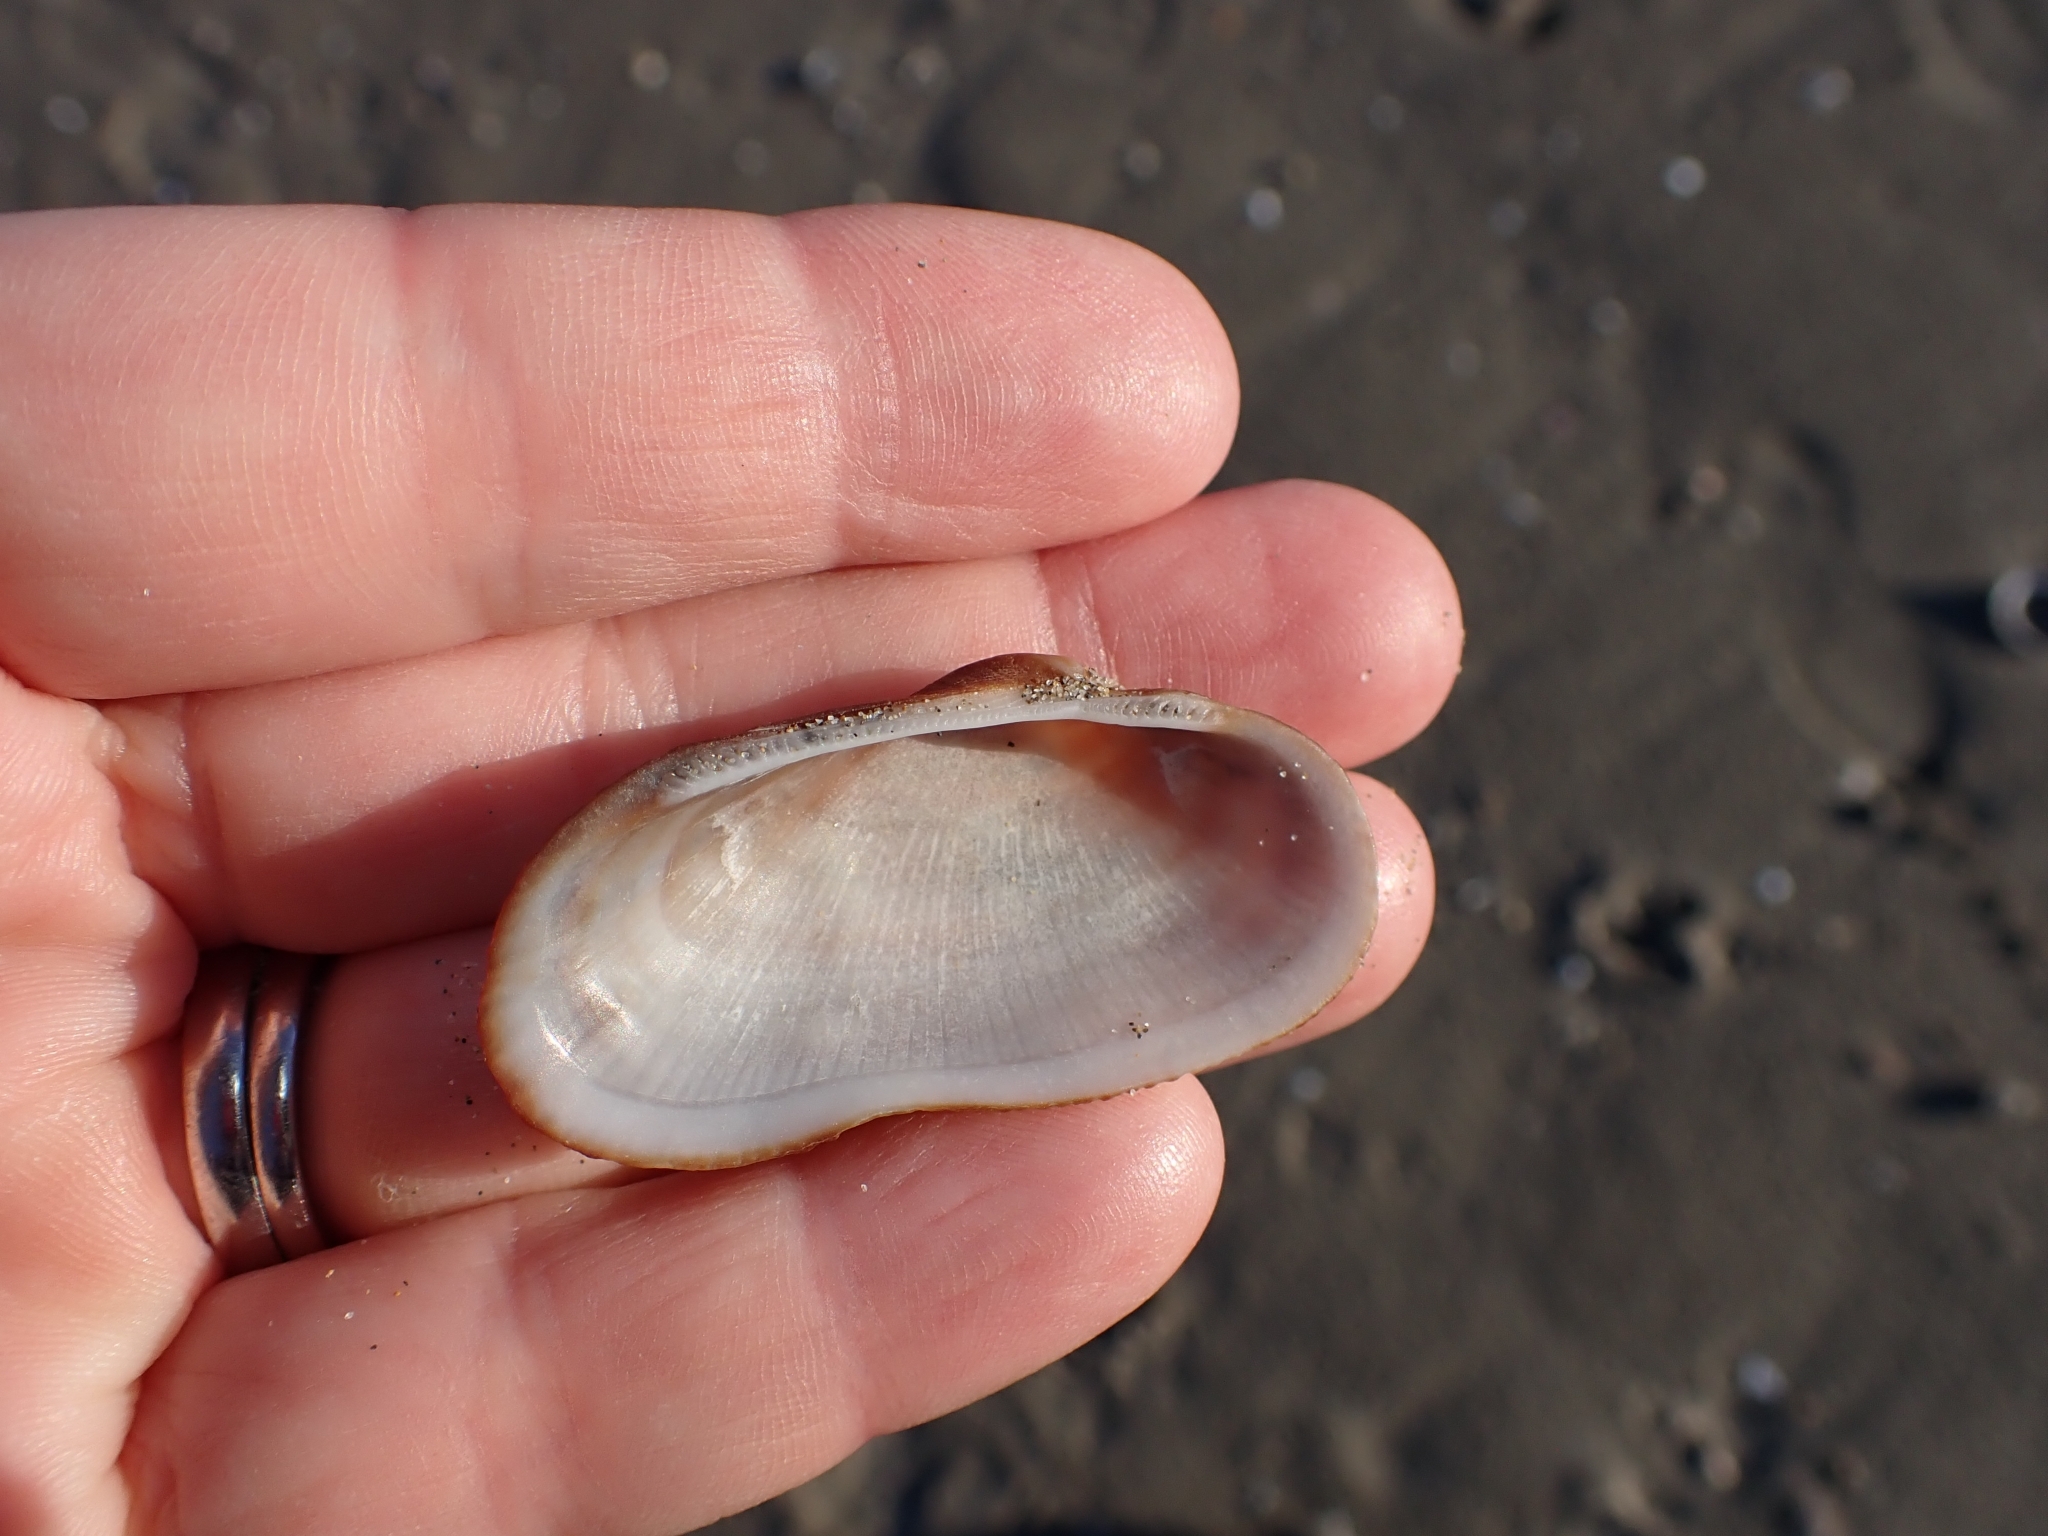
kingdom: Animalia
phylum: Mollusca
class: Bivalvia
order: Arcida
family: Arcidae
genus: Barbatia
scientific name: Barbatia barbata
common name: Bearded ark
